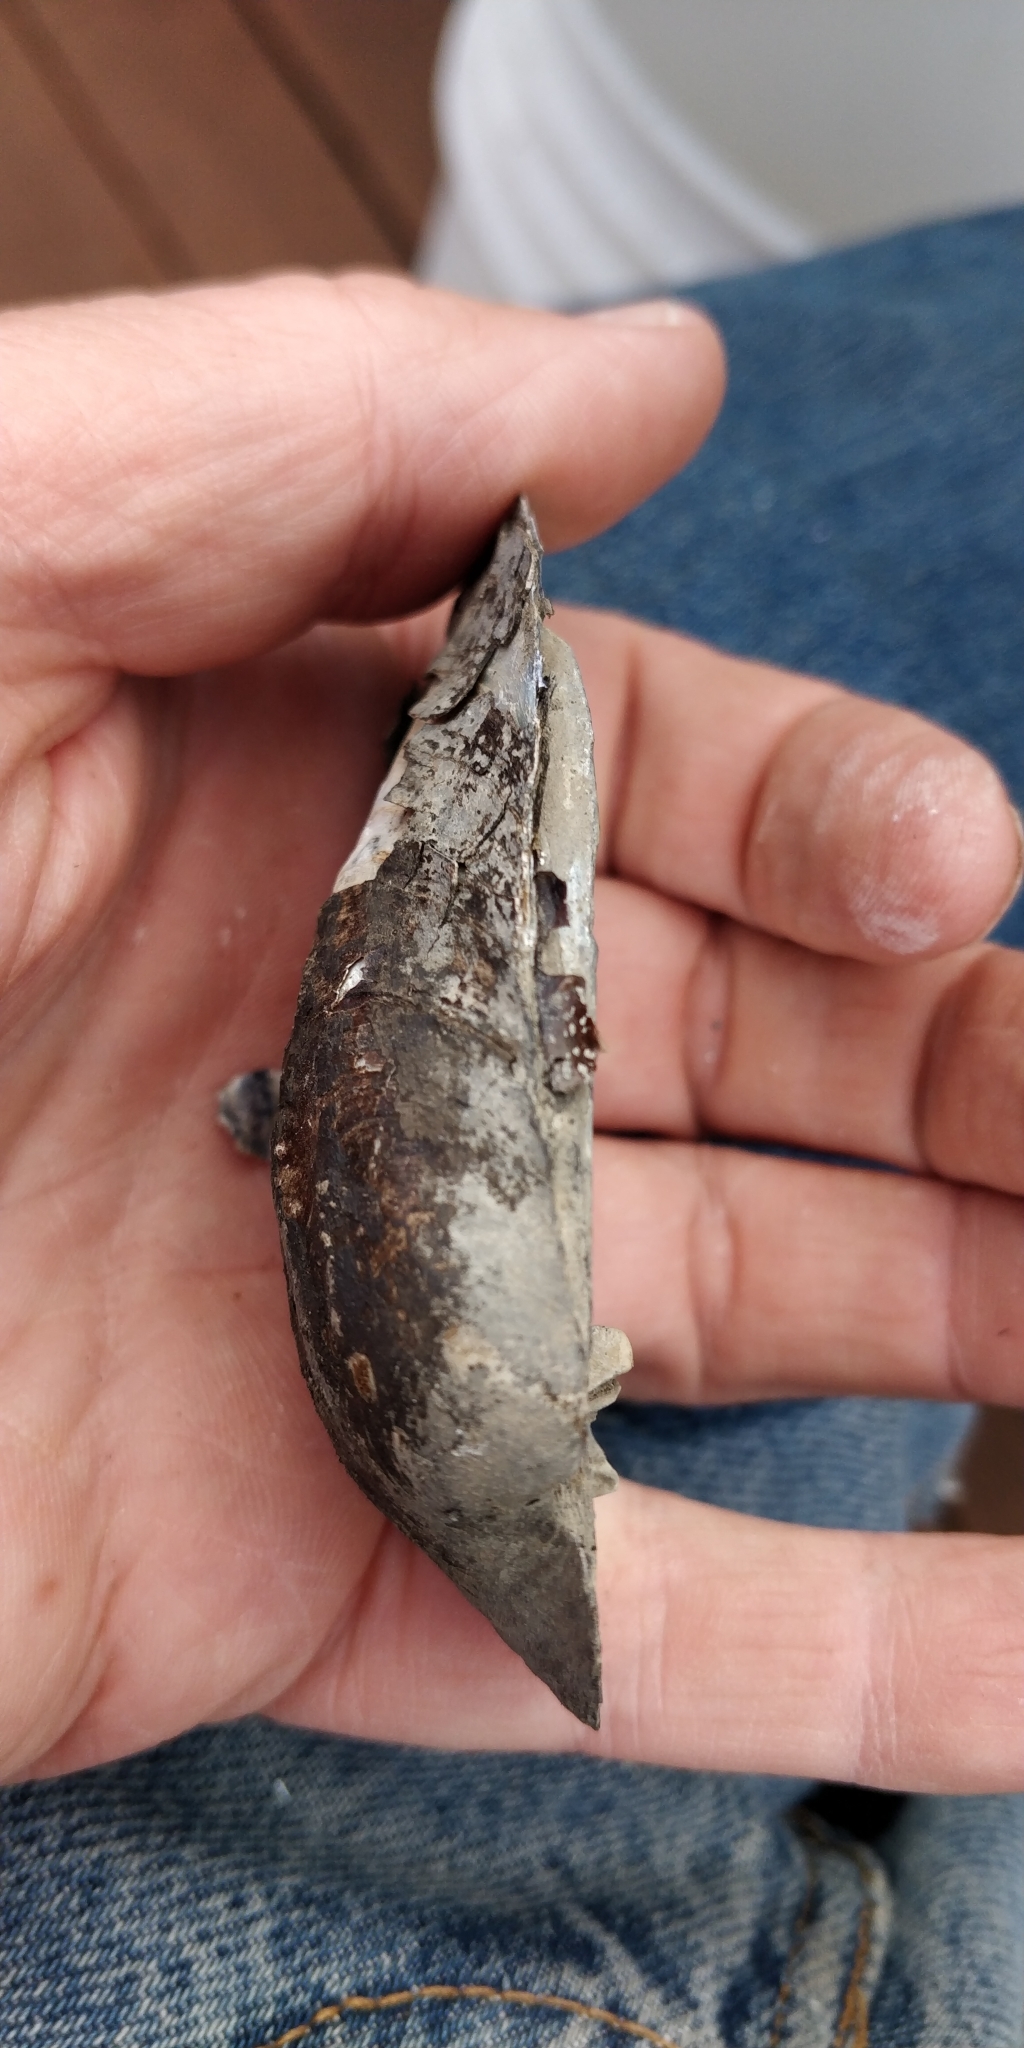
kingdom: Animalia
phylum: Mollusca
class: Bivalvia
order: Unionida
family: Unionidae
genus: Amblema
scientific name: Amblema plicata
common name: Threeridge
